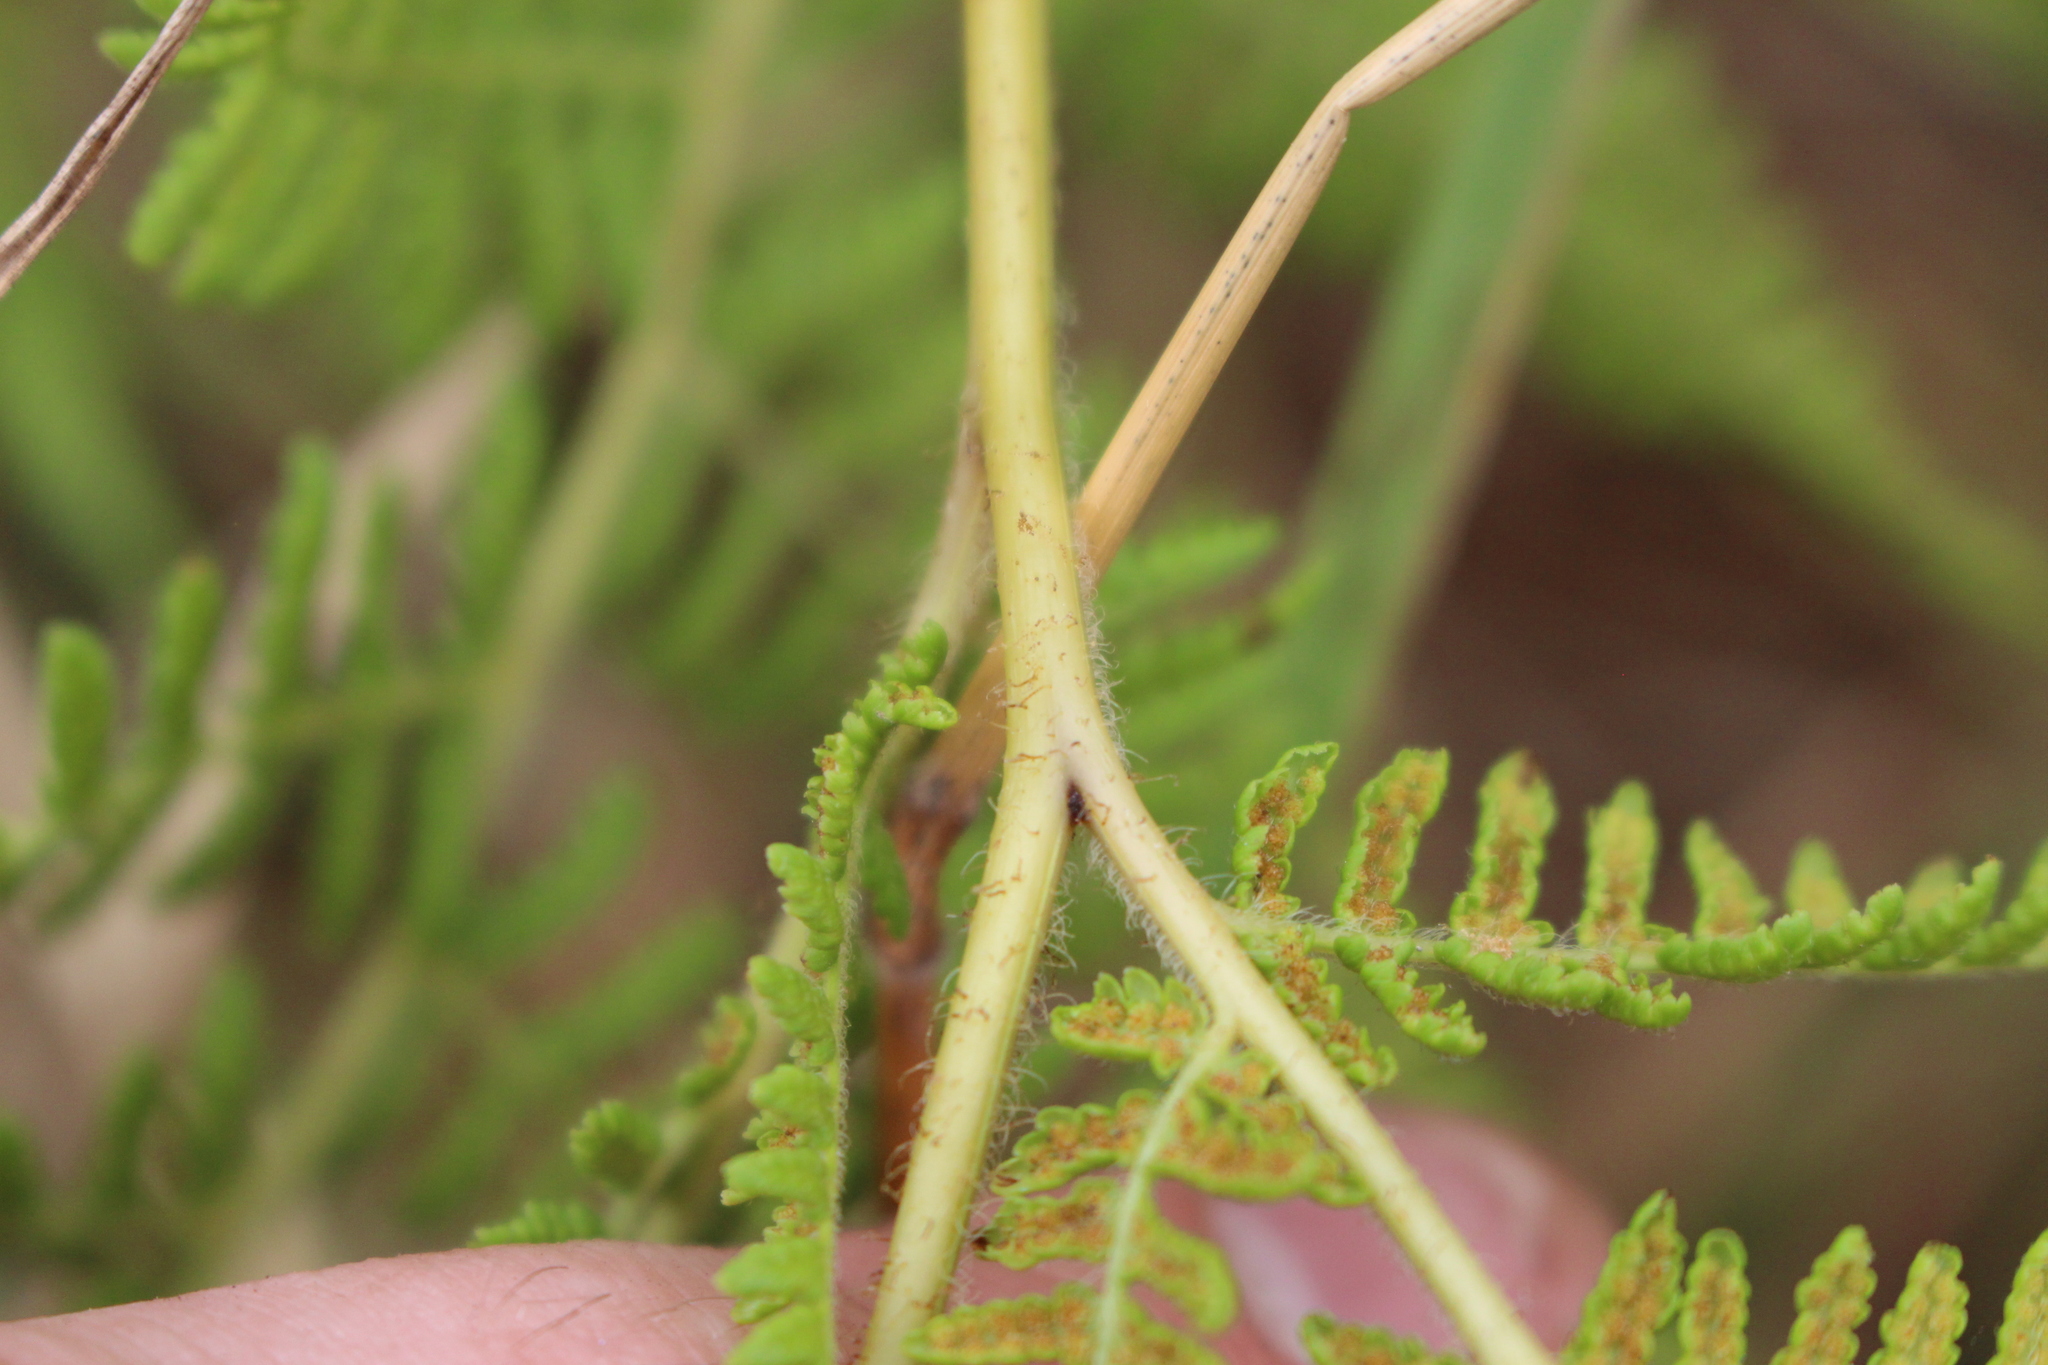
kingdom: Plantae
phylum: Tracheophyta
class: Polypodiopsida
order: Polypodiales
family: Dennstaedtiaceae
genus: Hypolepis
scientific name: Hypolepis ambigua
